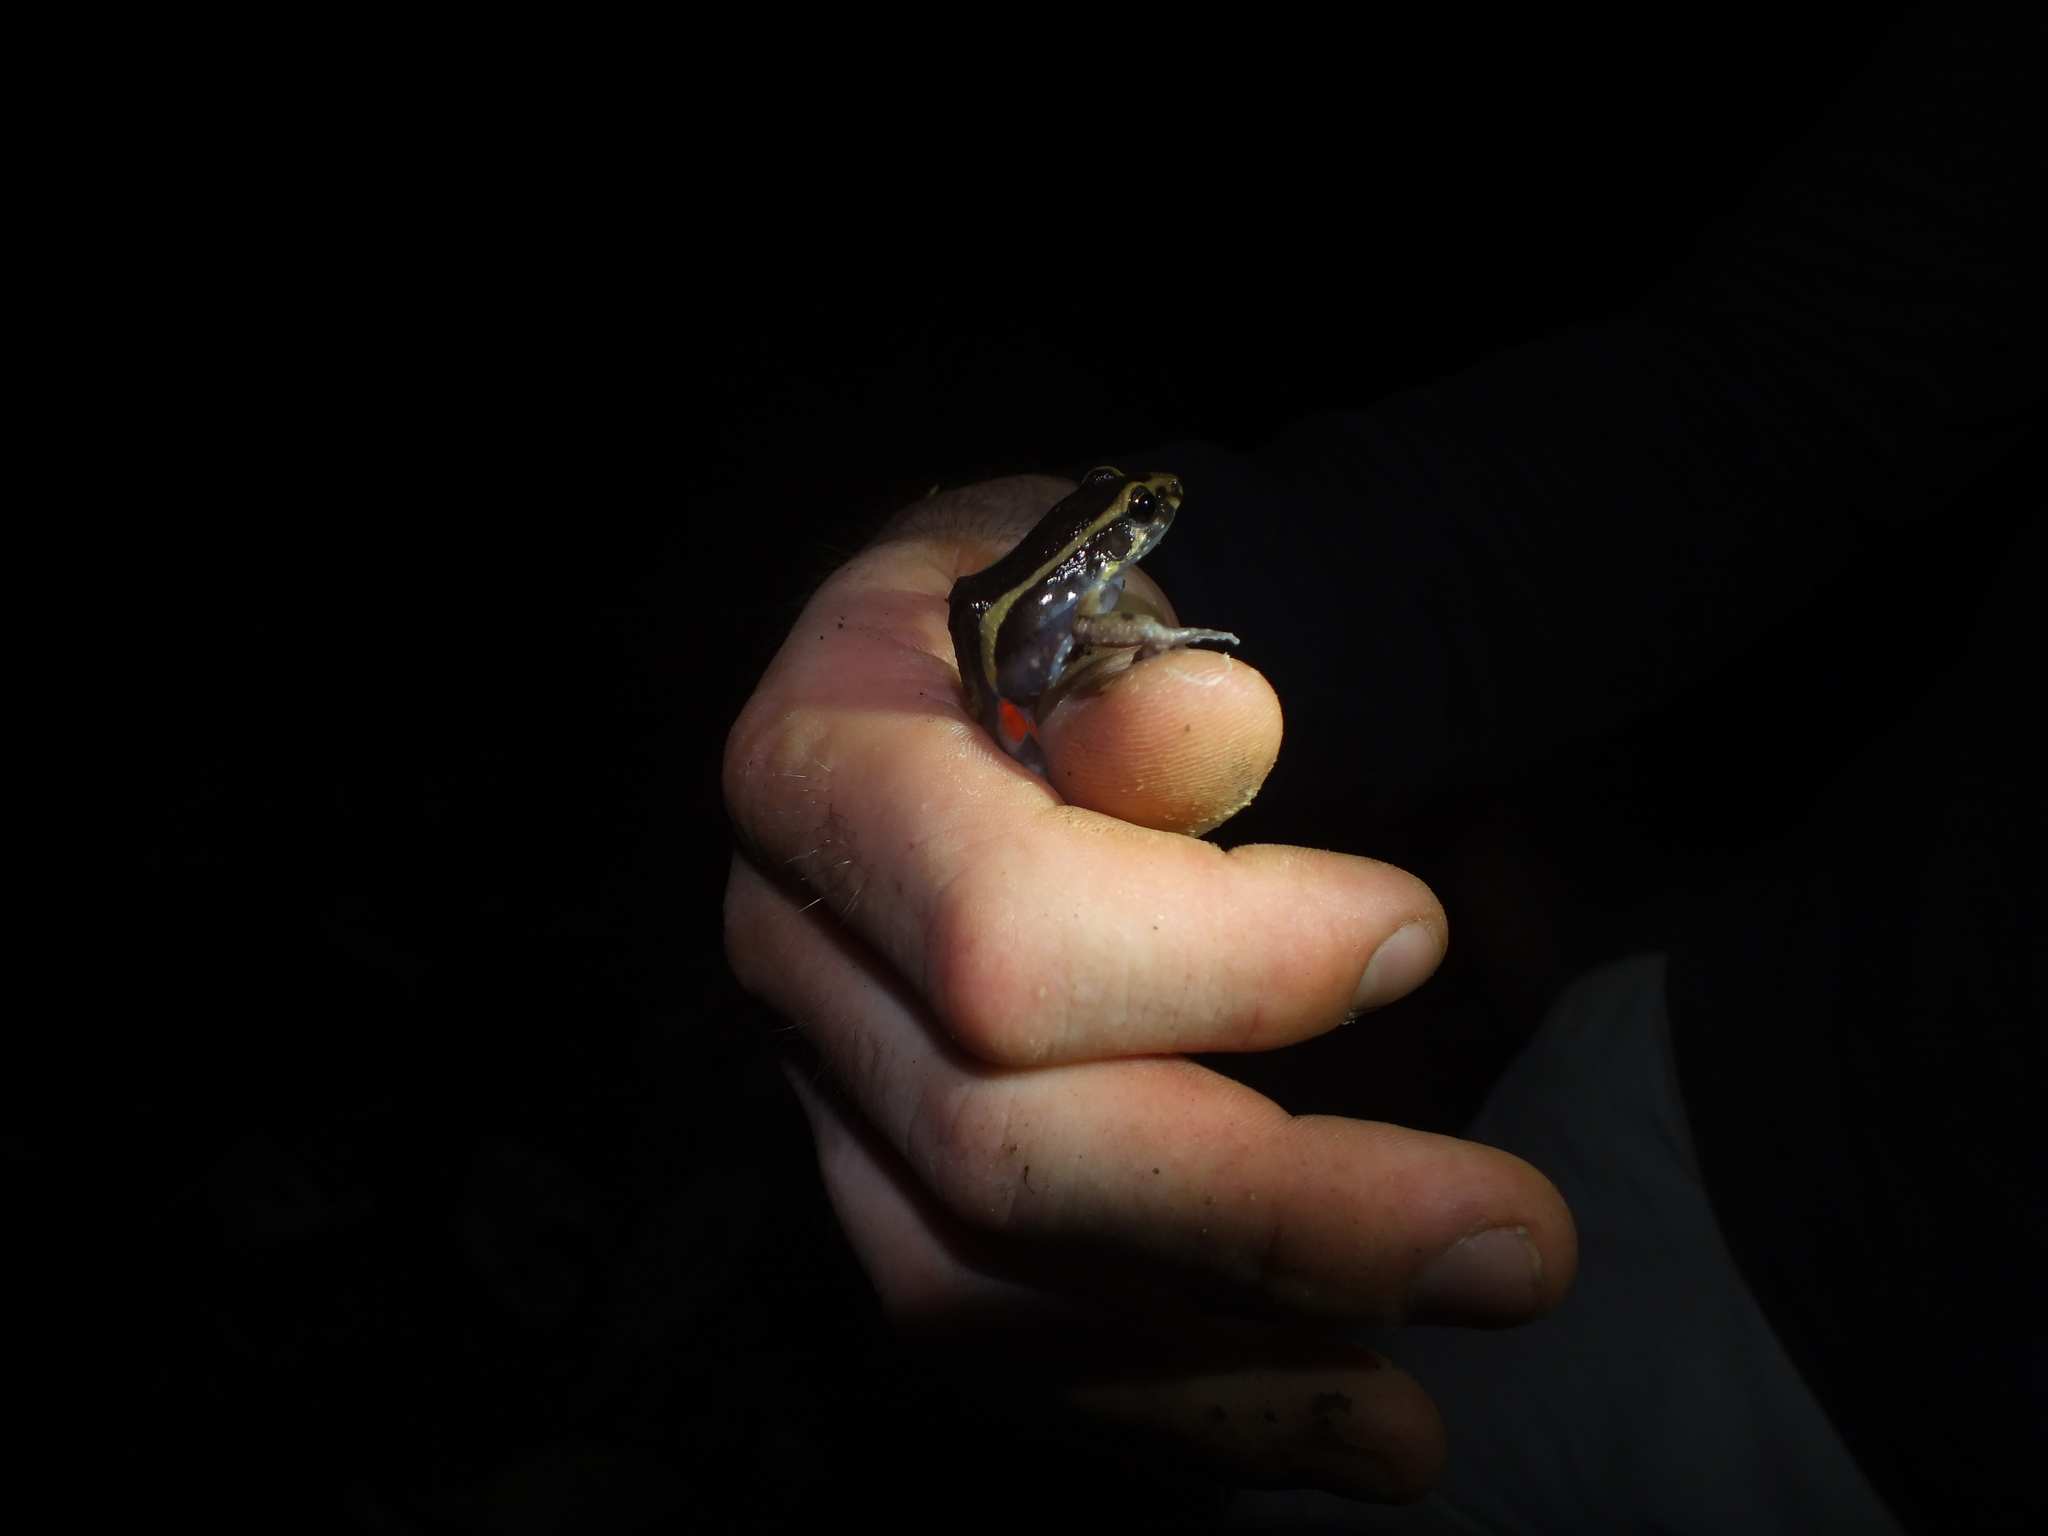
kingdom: Animalia
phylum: Chordata
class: Amphibia
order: Anura
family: Leptodactylidae
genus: Lithodytes
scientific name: Lithodytes lineatus
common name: Gold-striped frog
